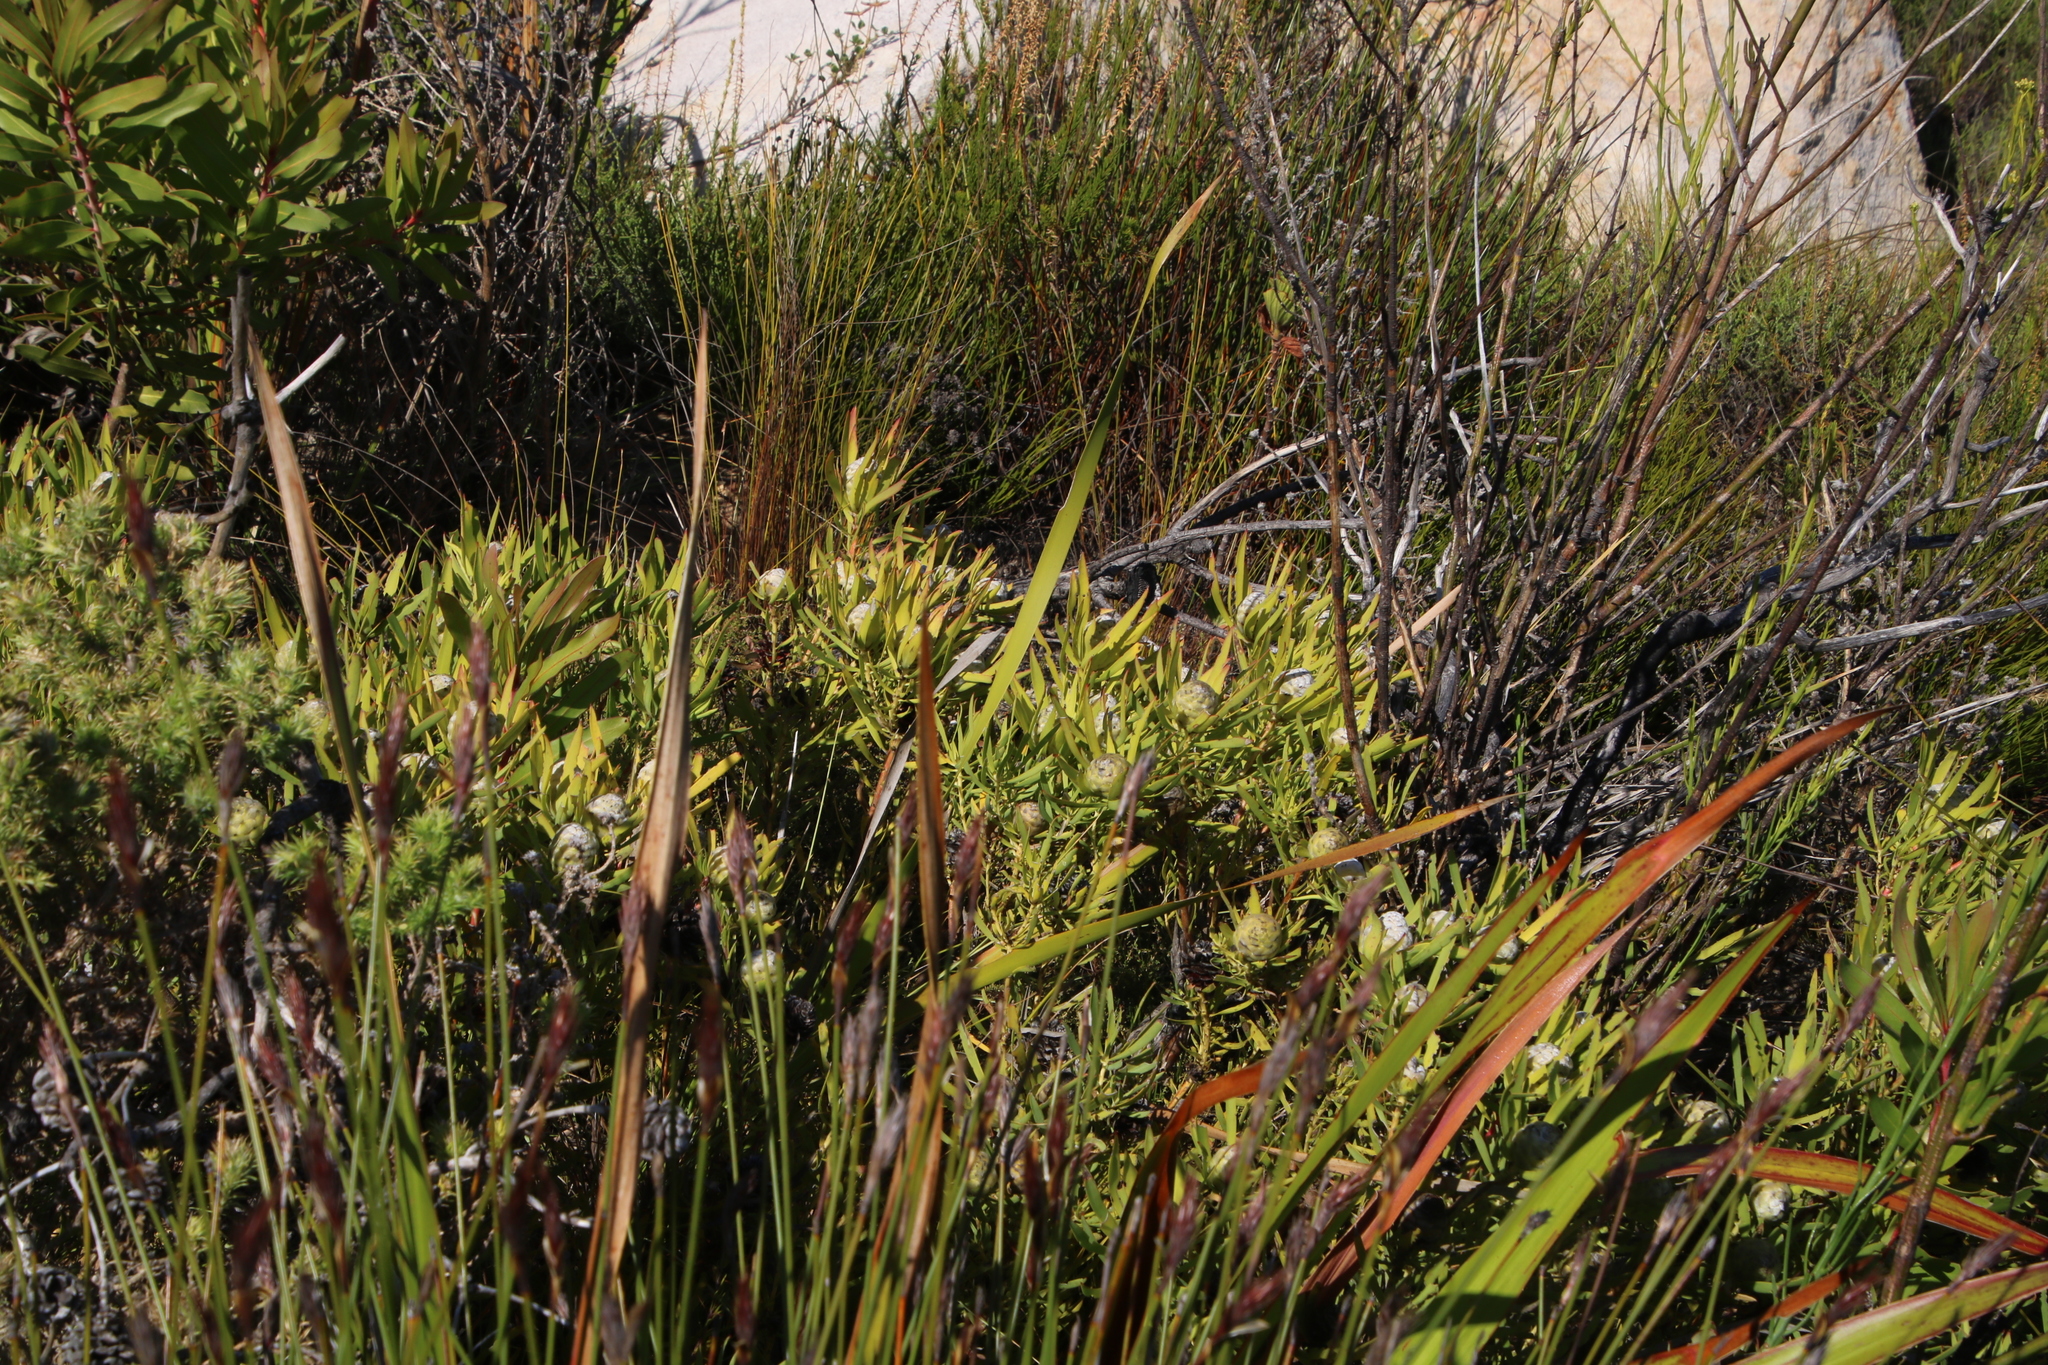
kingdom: Plantae
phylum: Tracheophyta
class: Magnoliopsida
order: Proteales
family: Proteaceae
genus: Leucadendron
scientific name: Leucadendron salignum
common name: Common sunshine conebush
